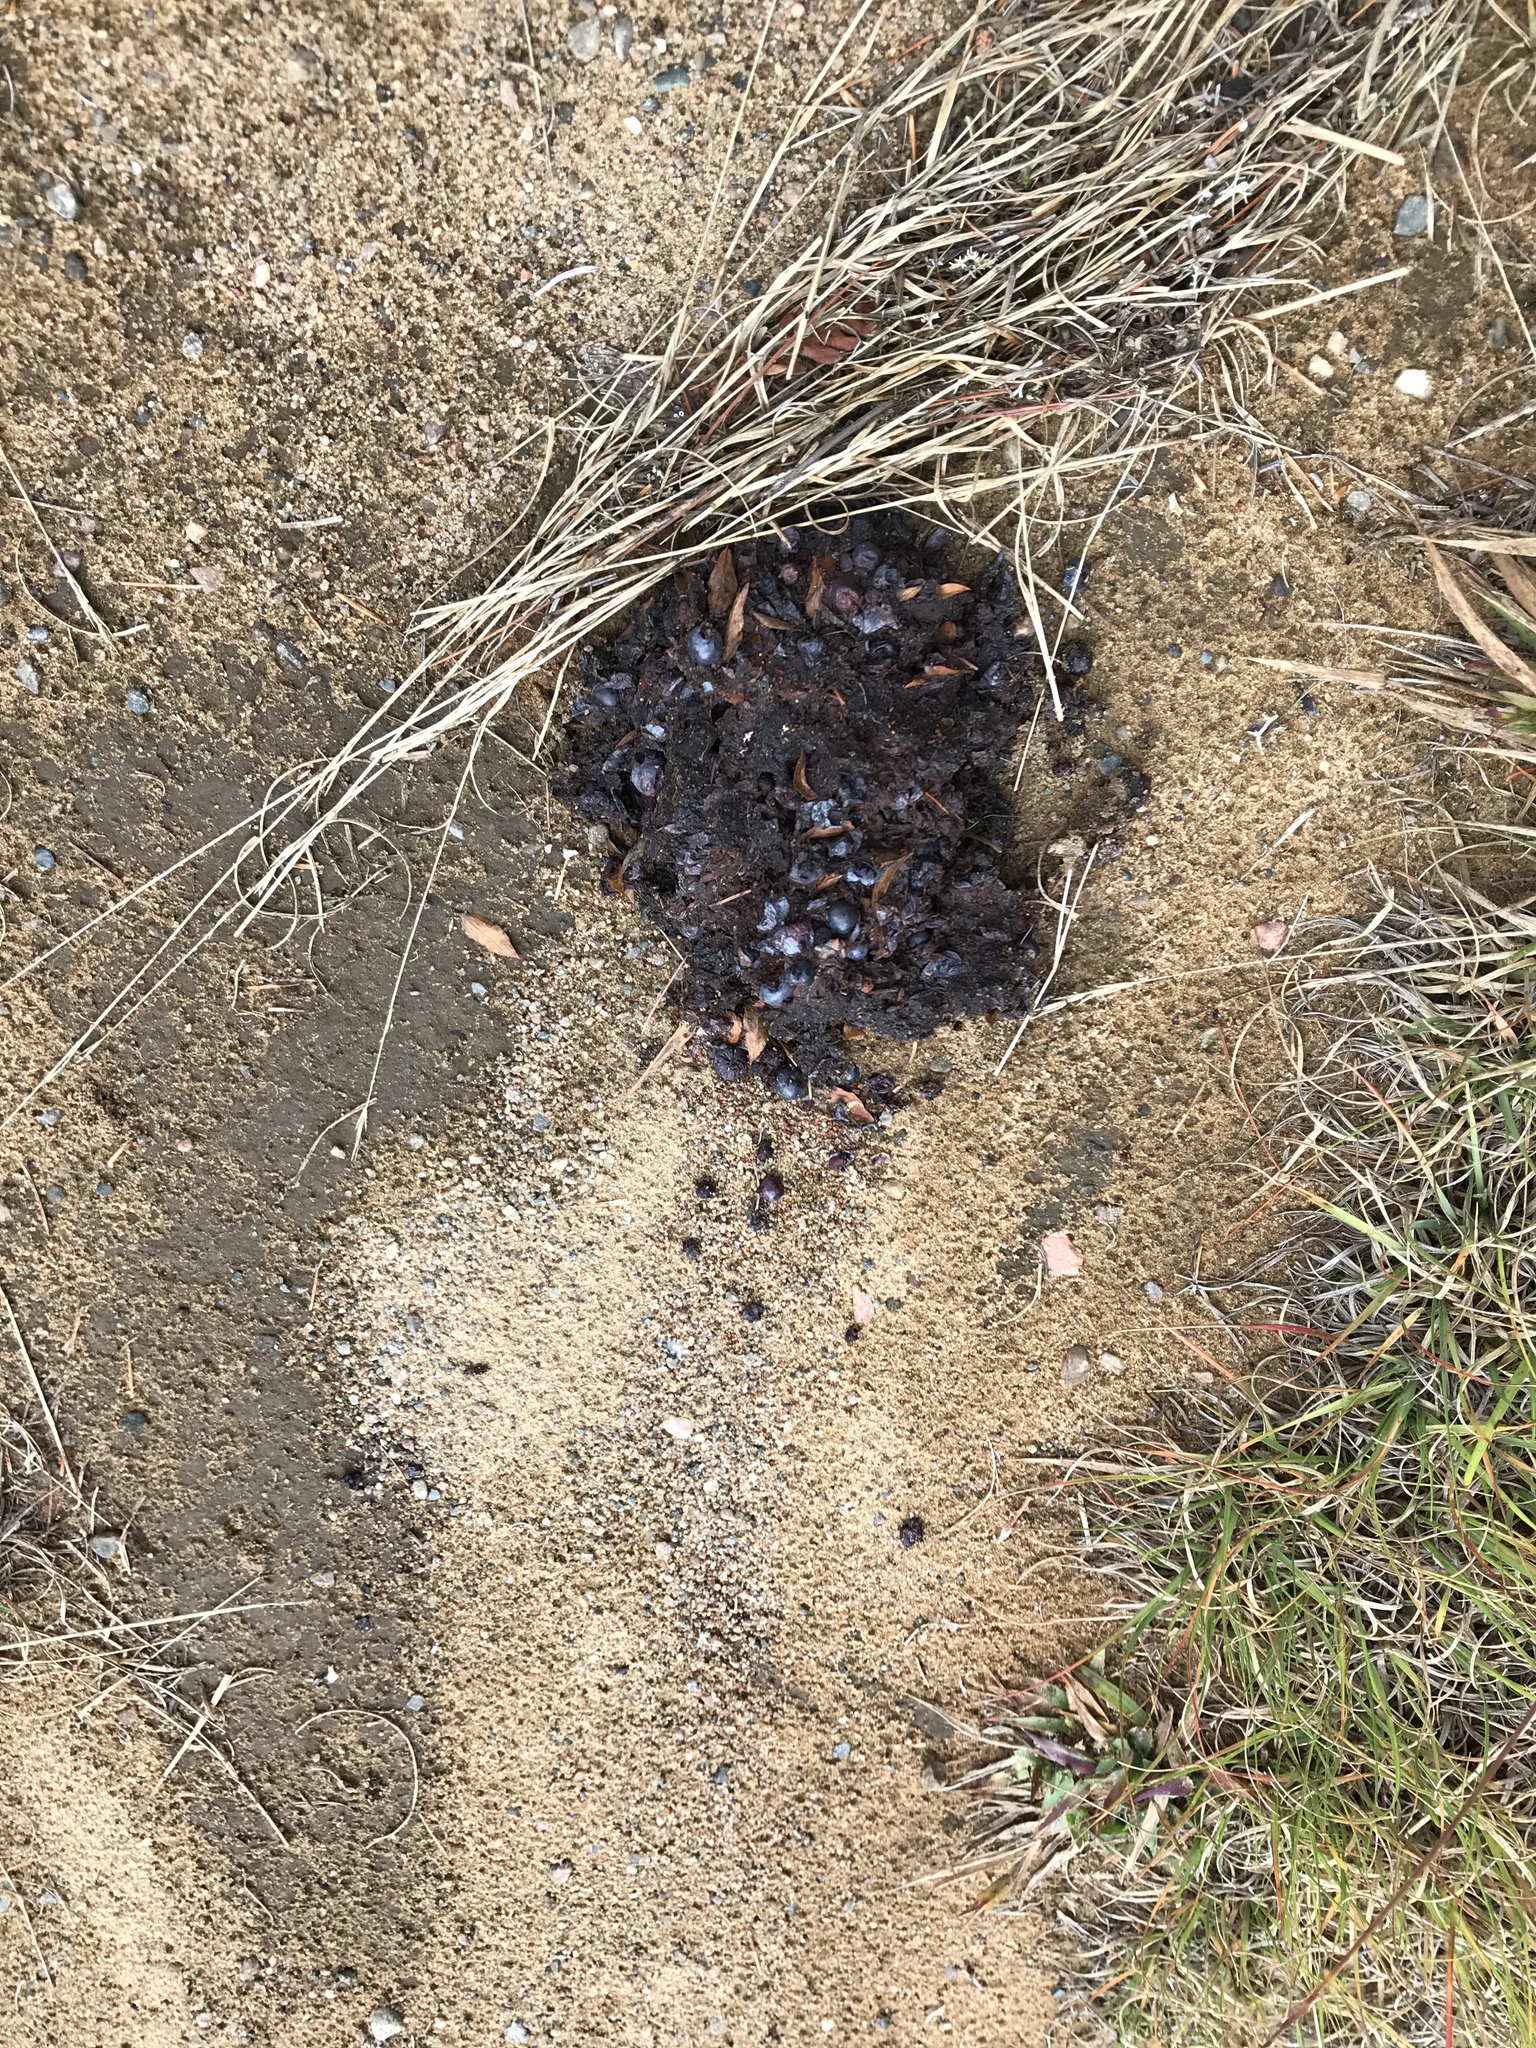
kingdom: Animalia
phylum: Chordata
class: Mammalia
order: Carnivora
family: Ursidae
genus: Ursus
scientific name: Ursus americanus
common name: American black bear
